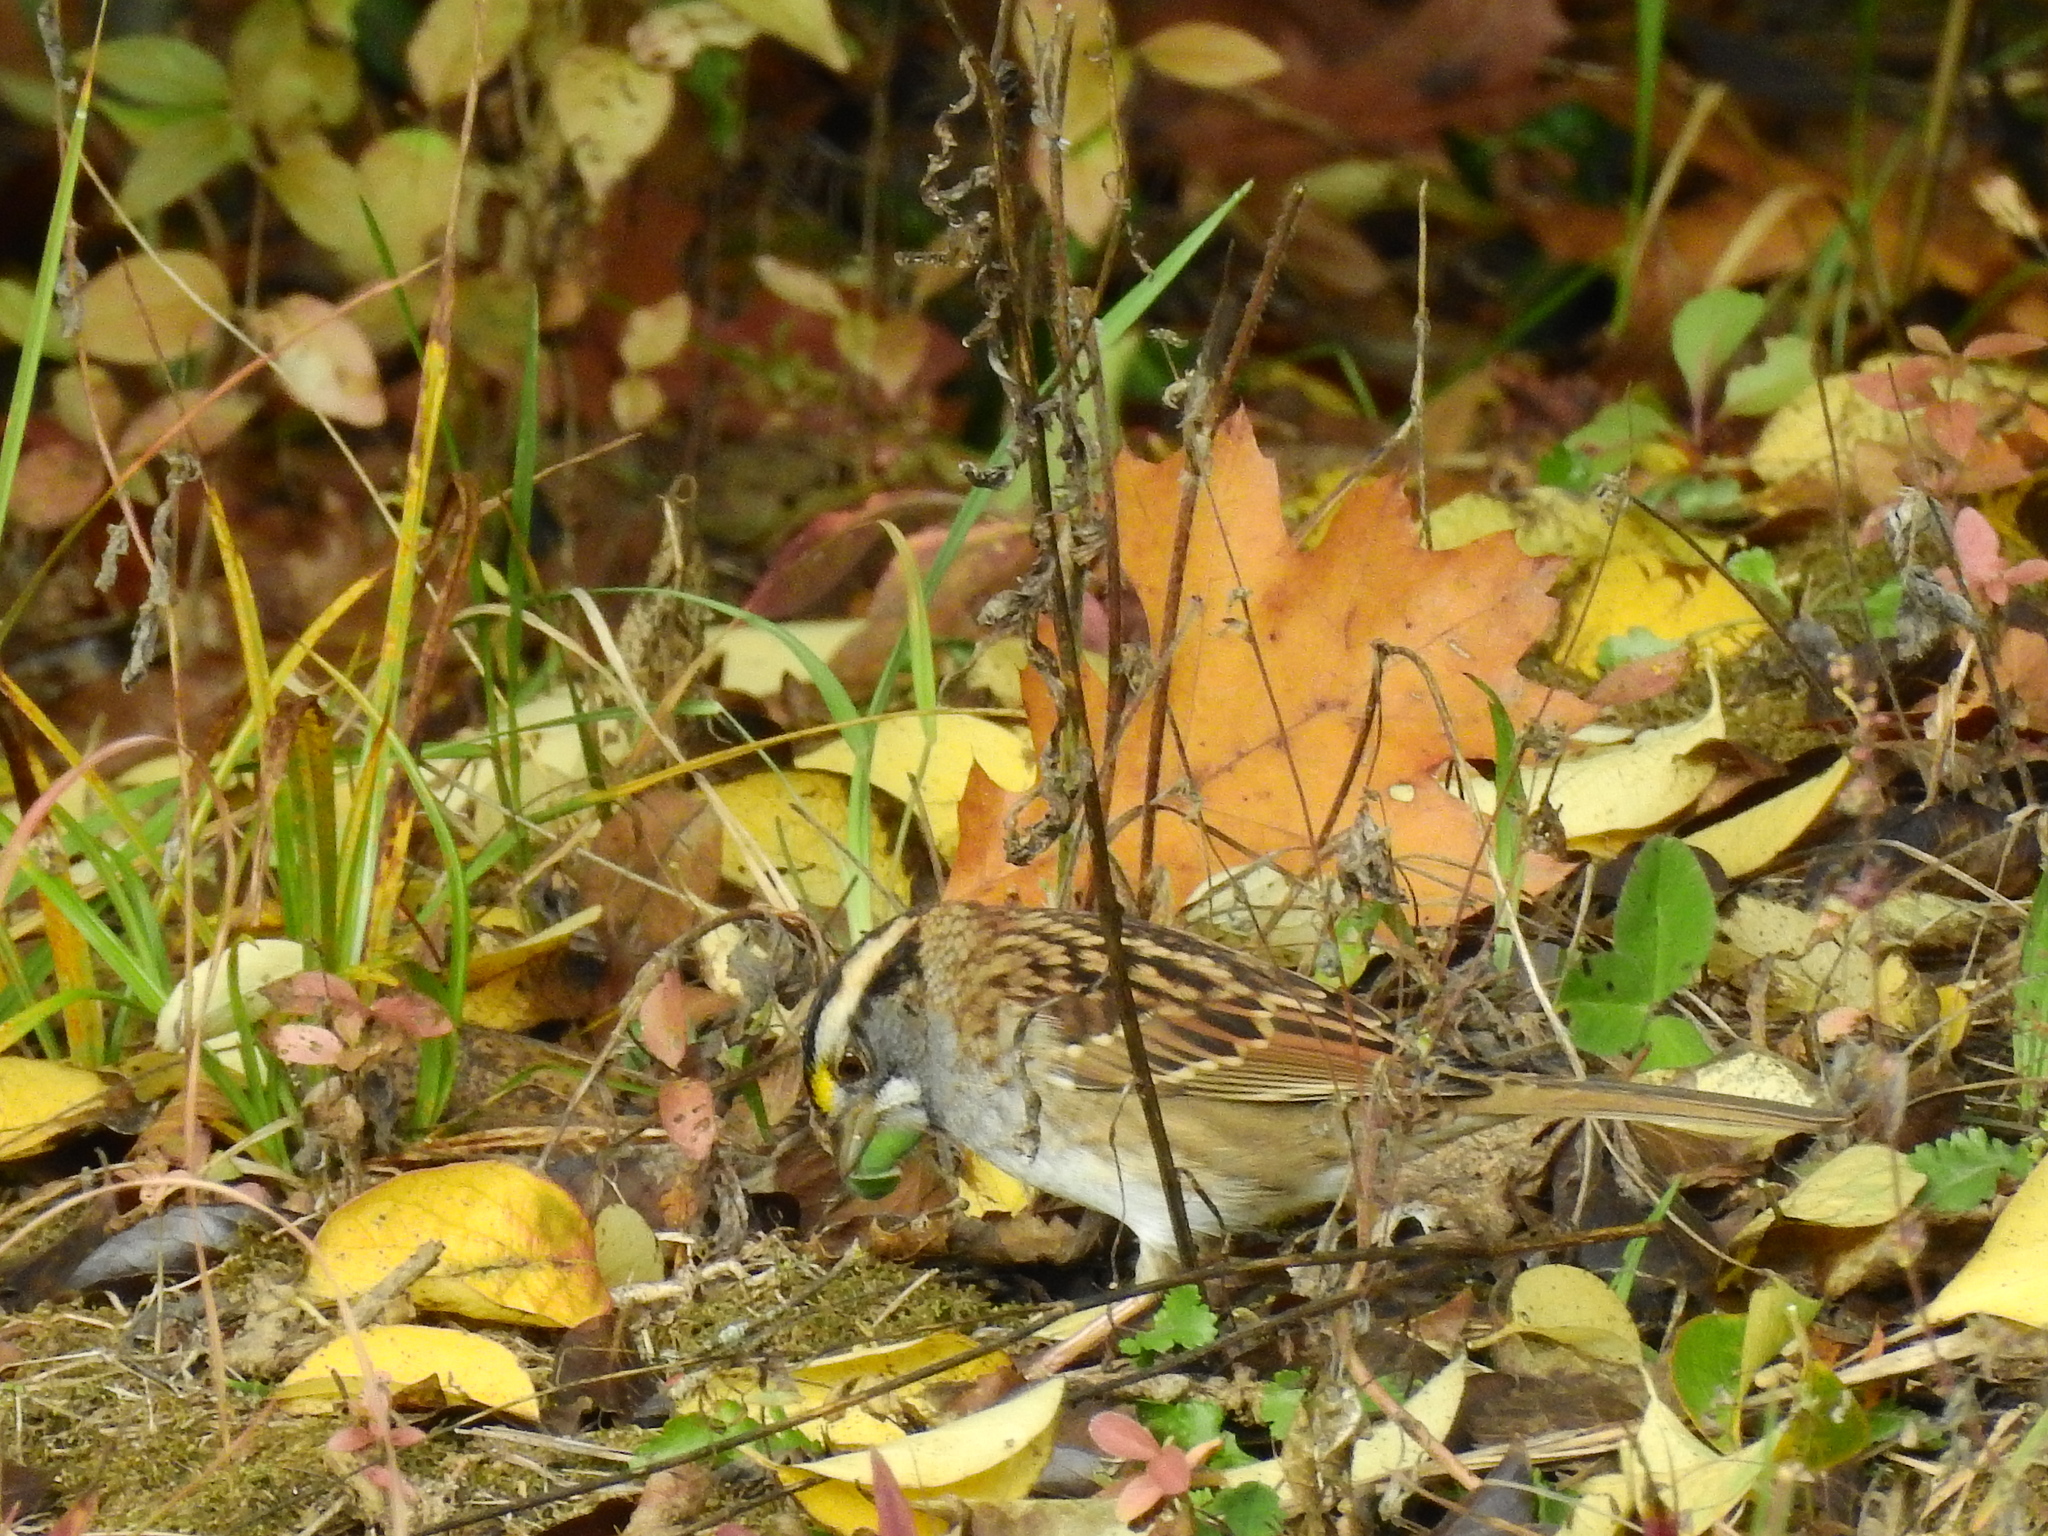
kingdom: Animalia
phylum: Chordata
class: Aves
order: Passeriformes
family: Passerellidae
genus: Zonotrichia
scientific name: Zonotrichia albicollis
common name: White-throated sparrow
